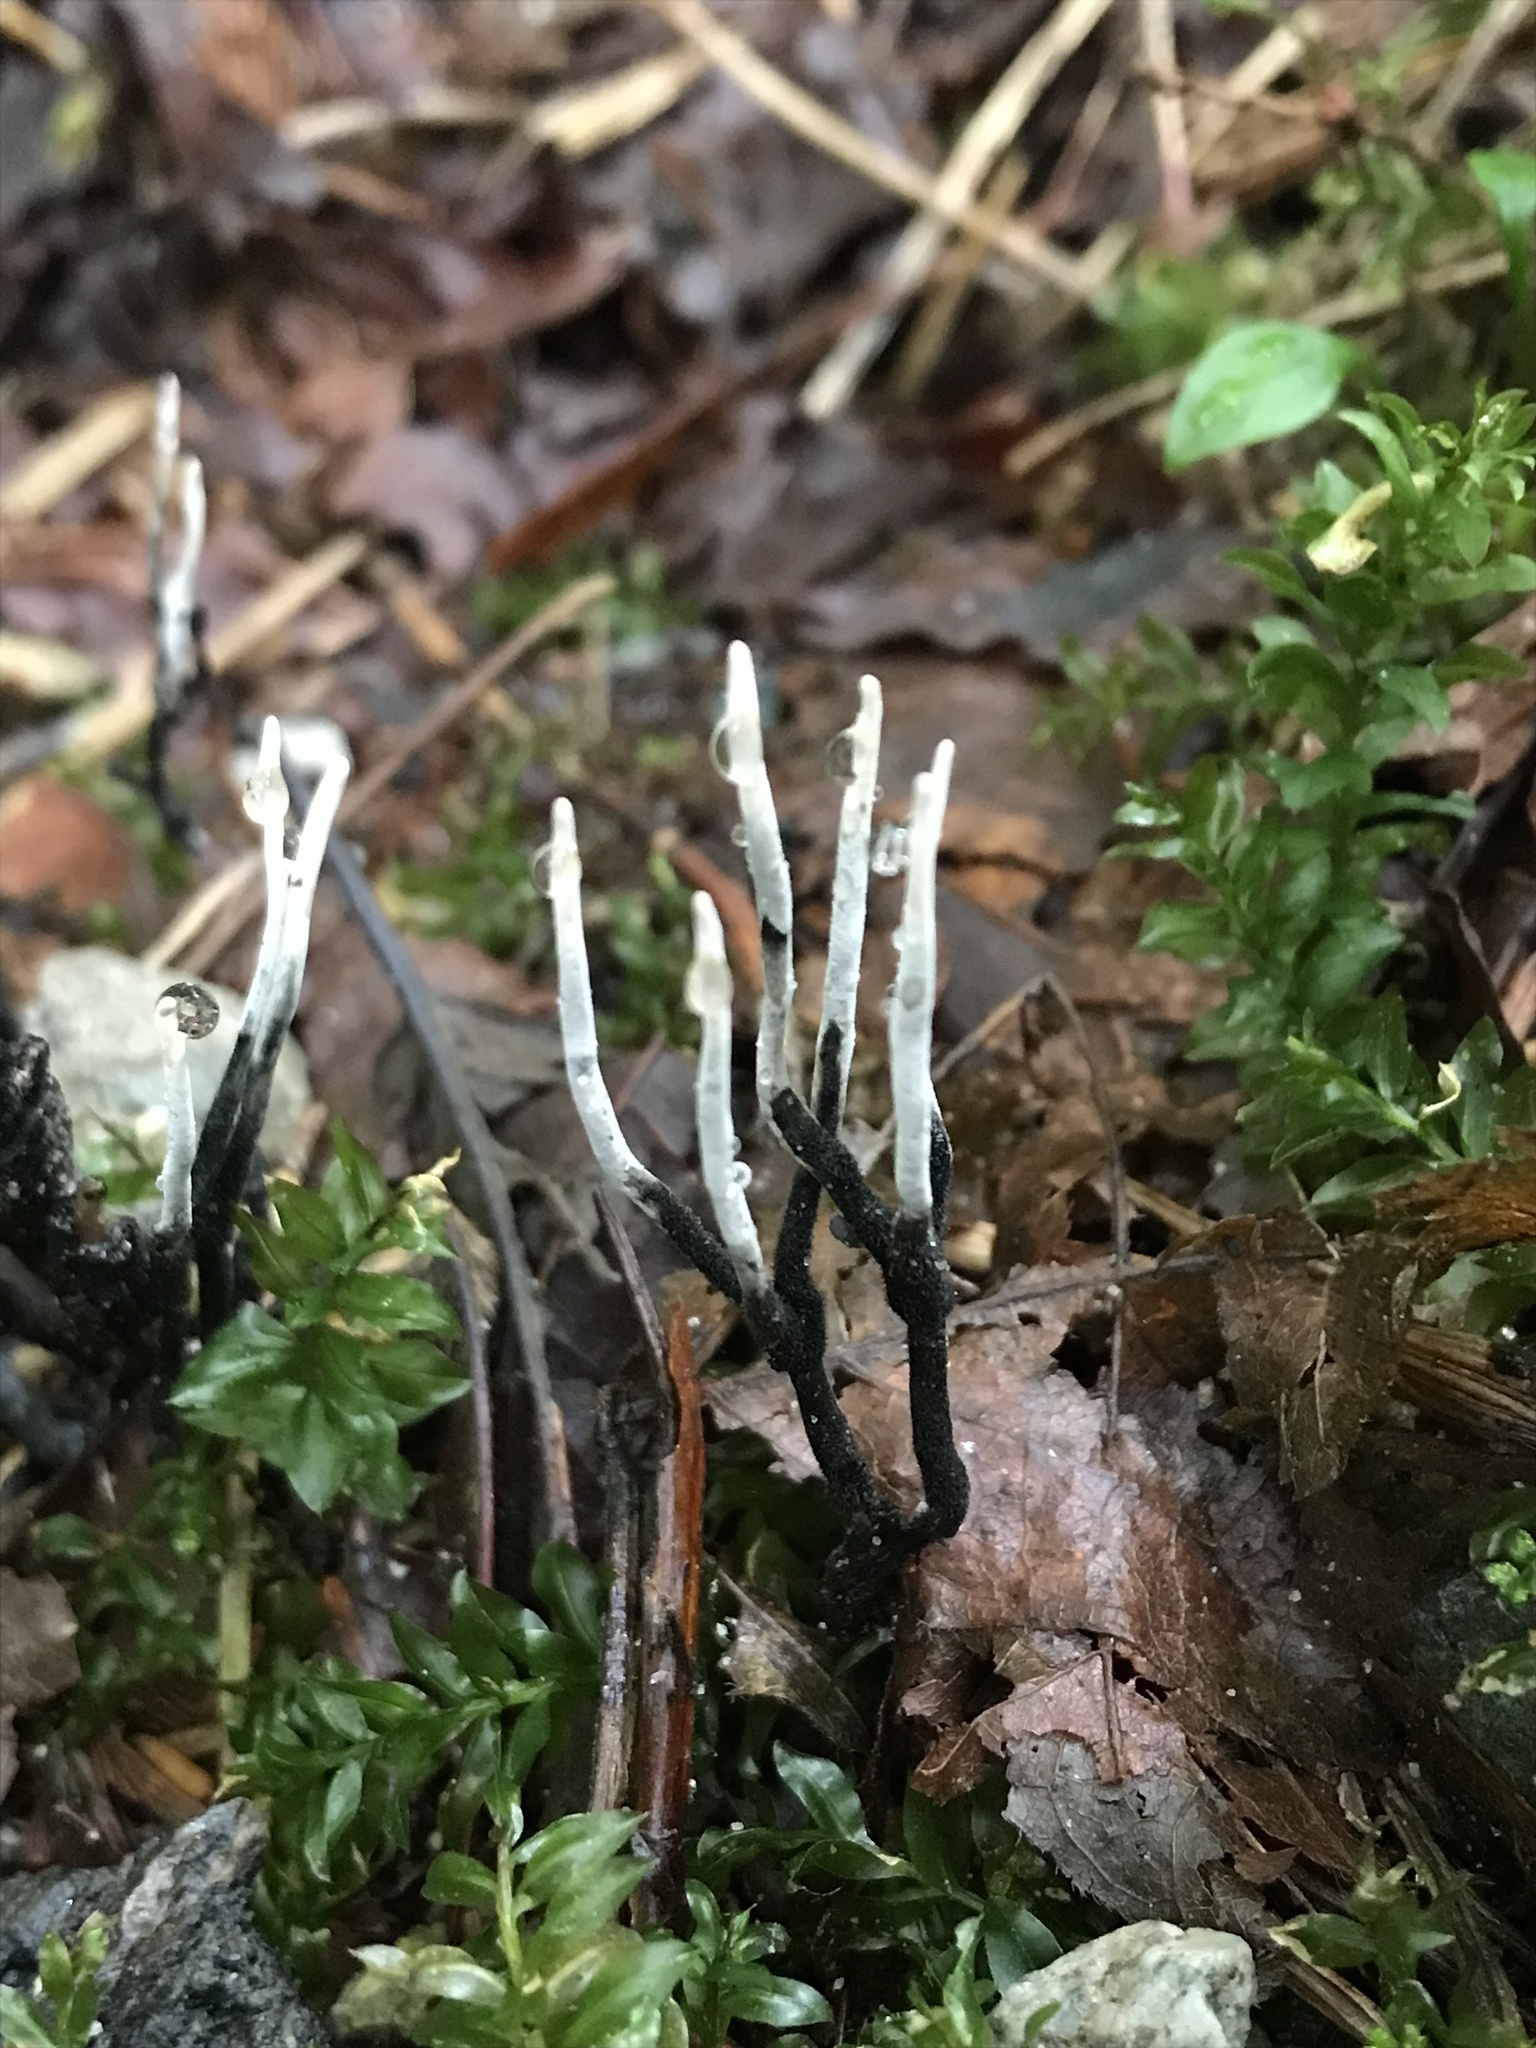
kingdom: Fungi
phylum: Ascomycota
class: Sordariomycetes
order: Xylariales
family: Xylariaceae
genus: Xylaria
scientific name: Xylaria hypoxylon
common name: Candle-snuff fungus
